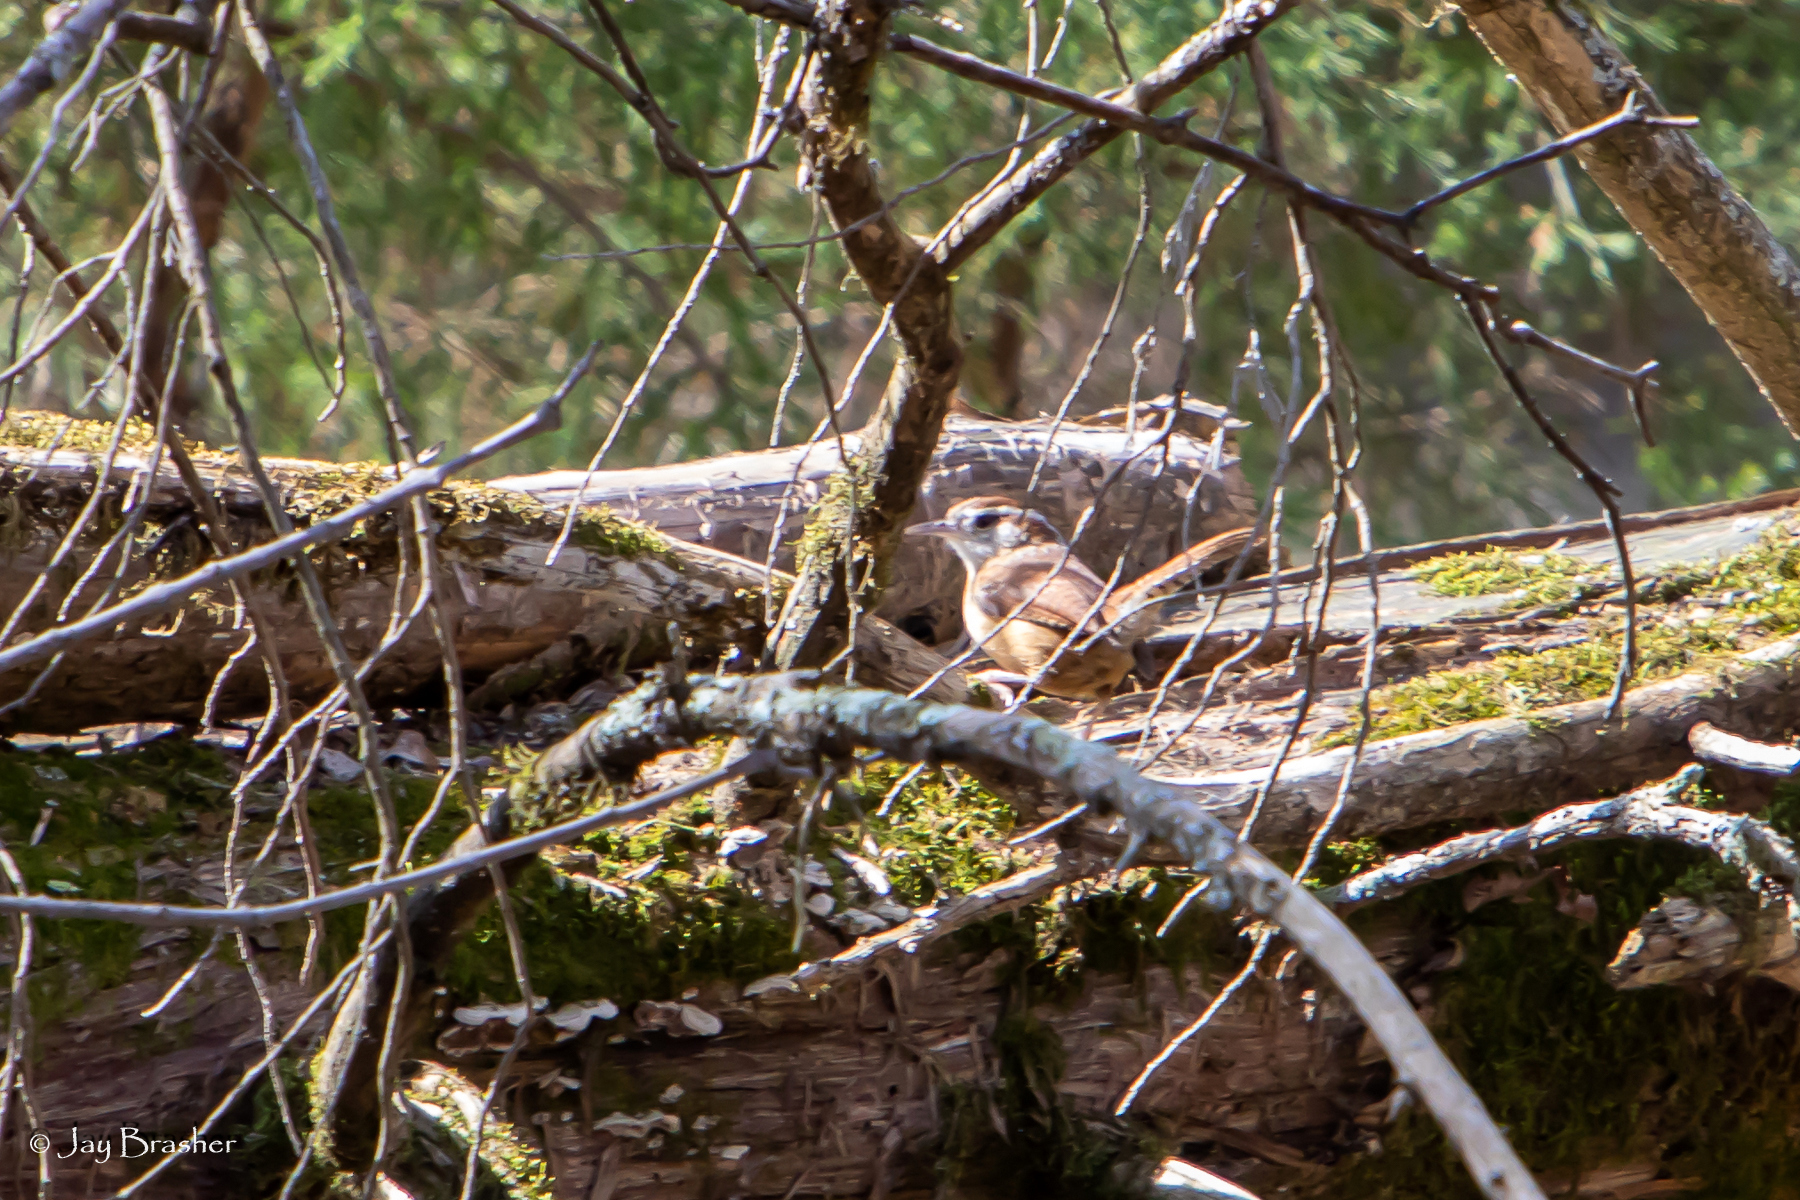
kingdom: Animalia
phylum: Chordata
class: Aves
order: Passeriformes
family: Troglodytidae
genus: Thryothorus
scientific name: Thryothorus ludovicianus
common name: Carolina wren
